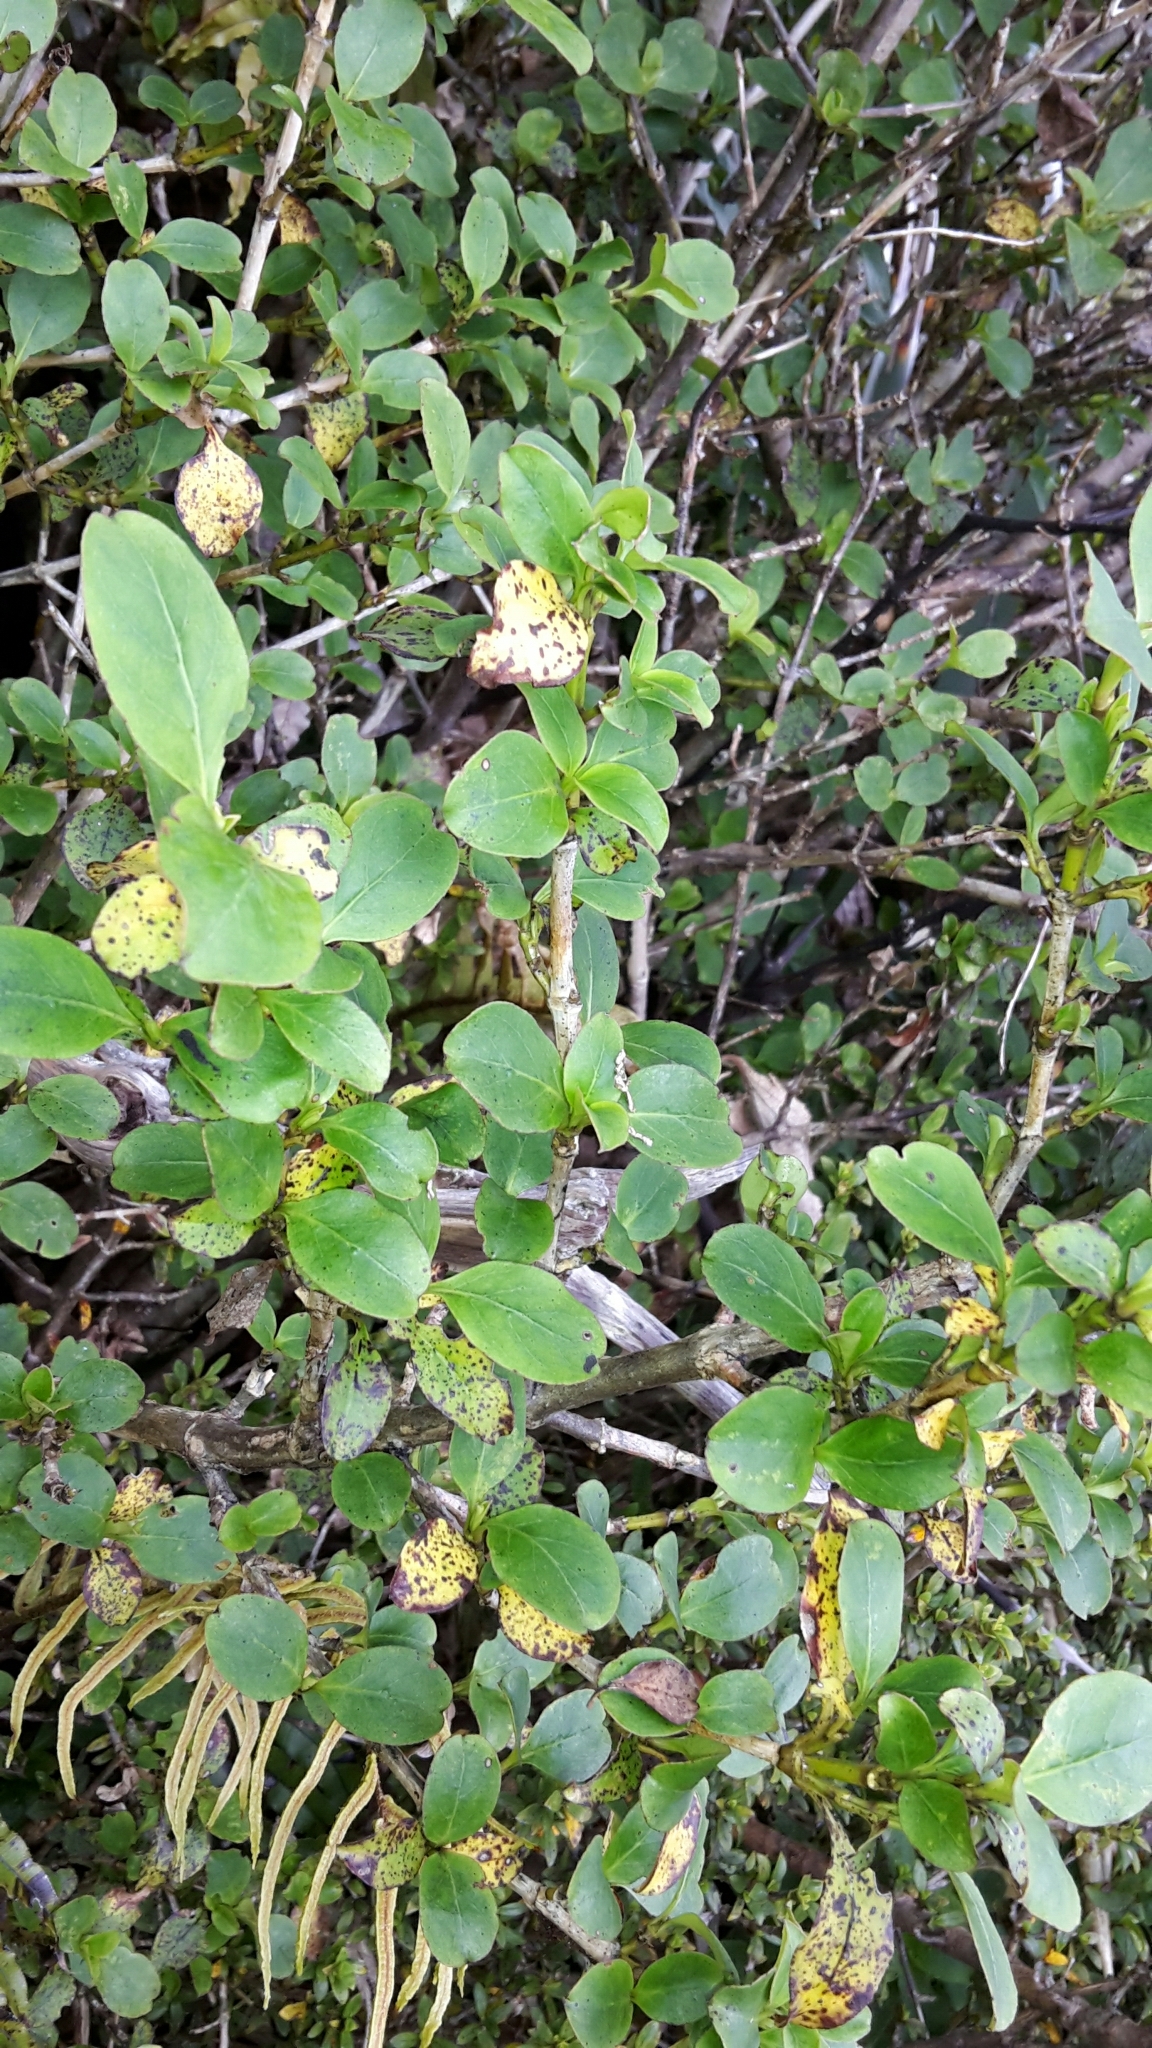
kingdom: Plantae
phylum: Tracheophyta
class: Magnoliopsida
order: Gentianales
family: Rubiaceae
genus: Coprosma
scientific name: Coprosma foetidissima
